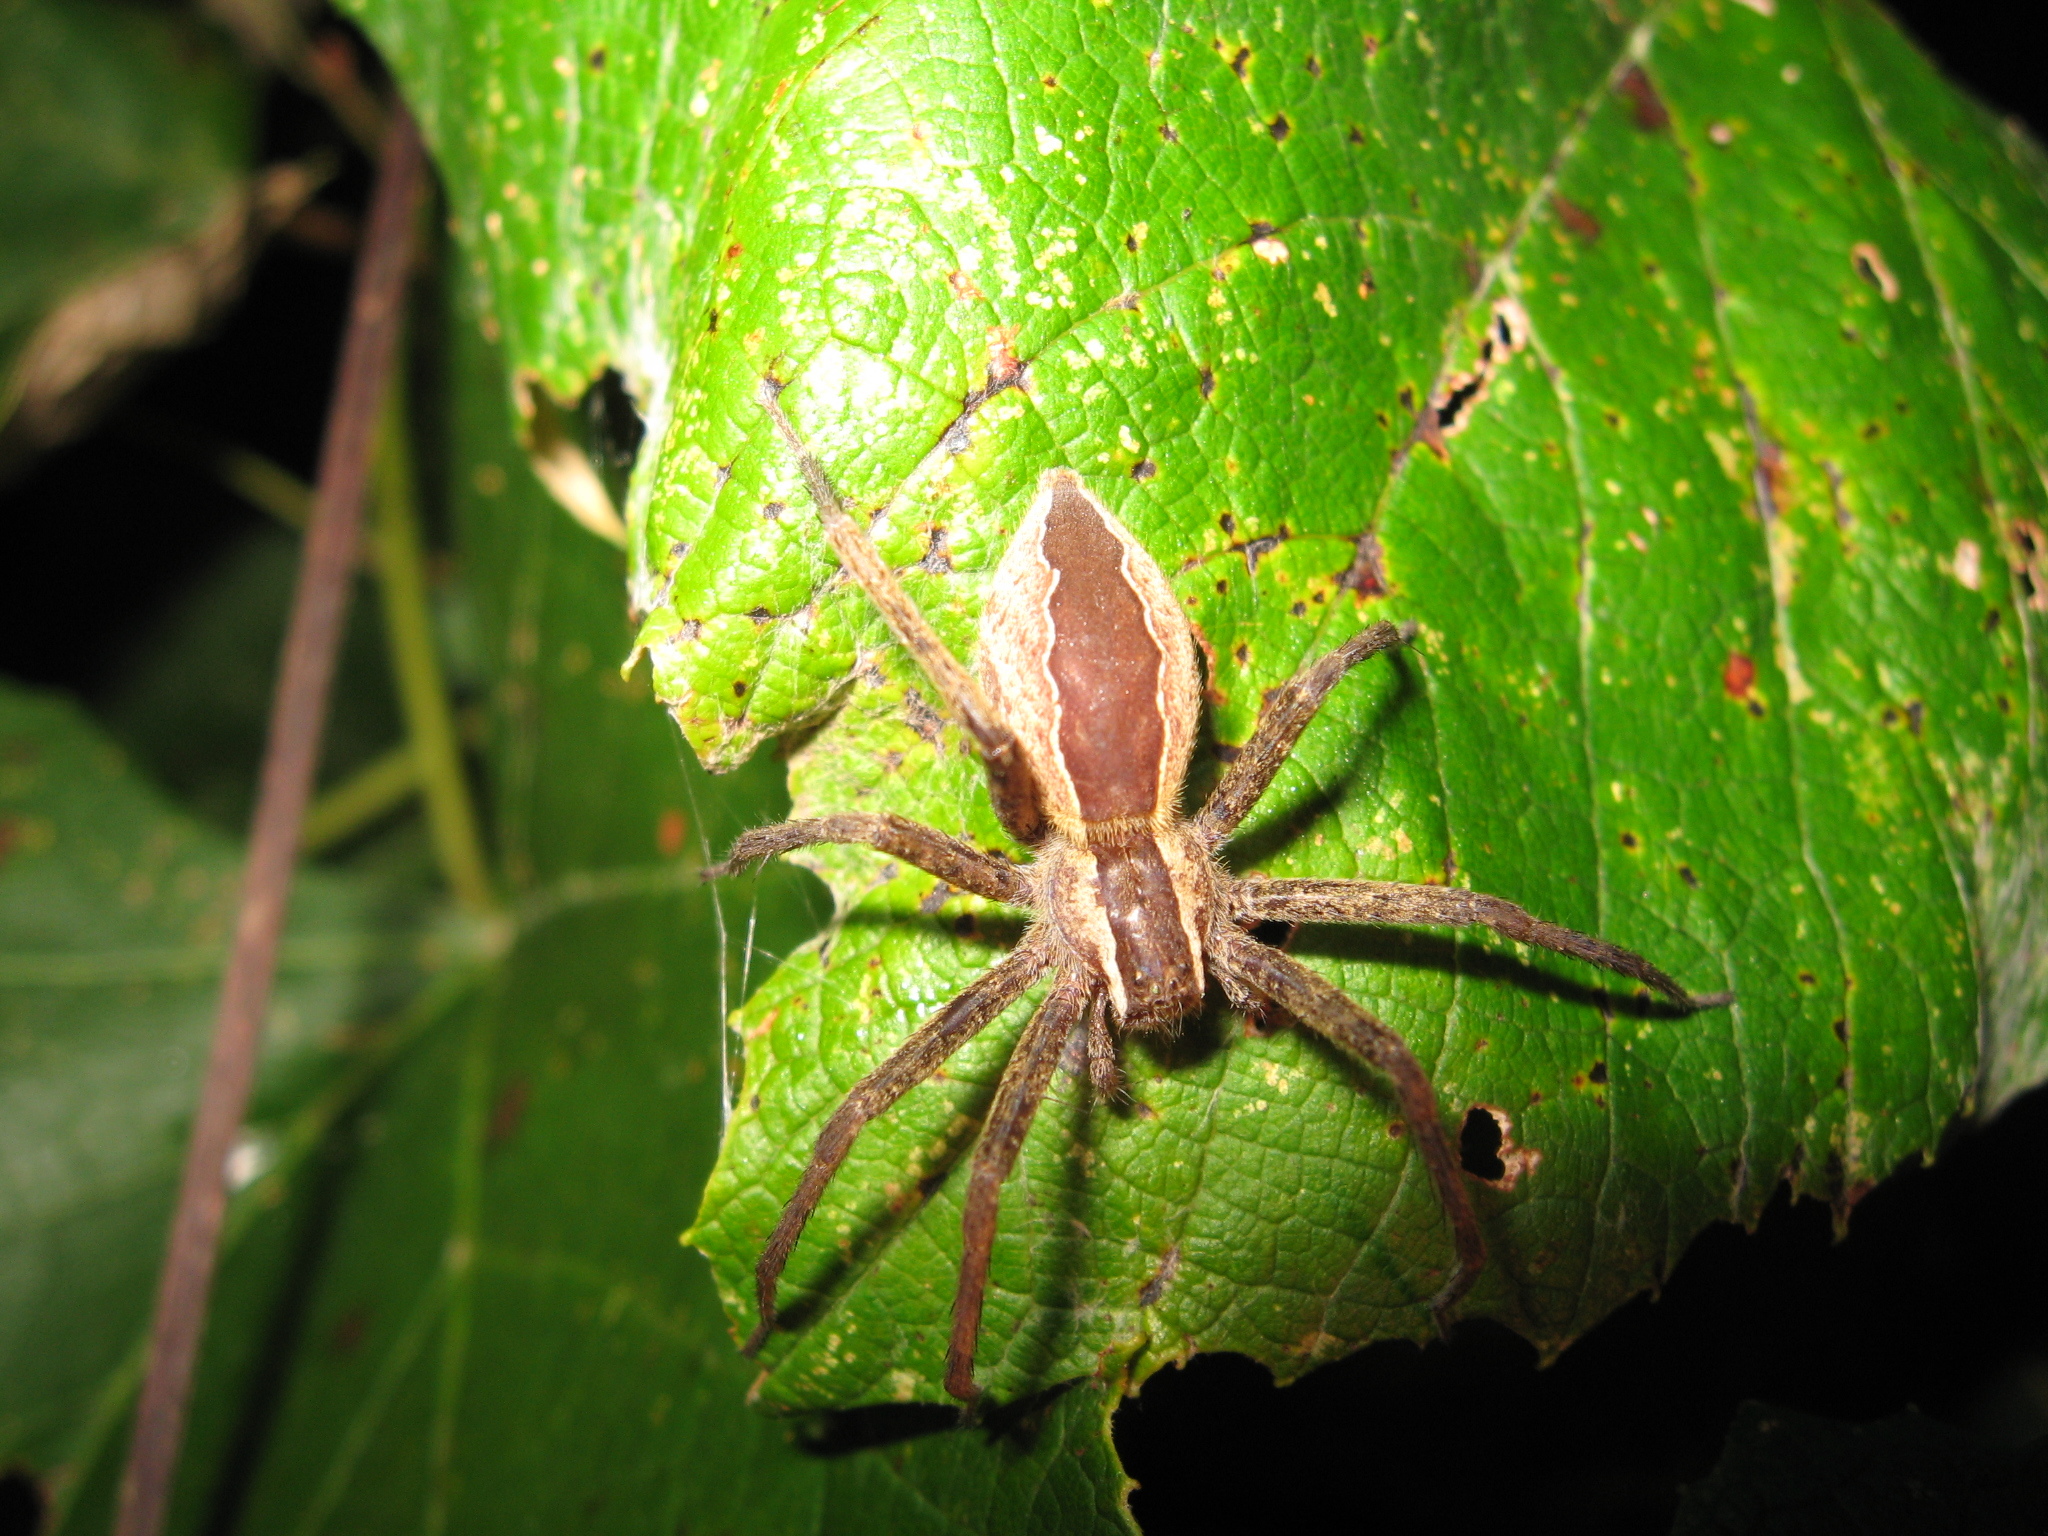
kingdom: Animalia
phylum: Arthropoda
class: Arachnida
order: Araneae
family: Pisauridae
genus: Pisaurina
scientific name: Pisaurina mira
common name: American nursery web spider
